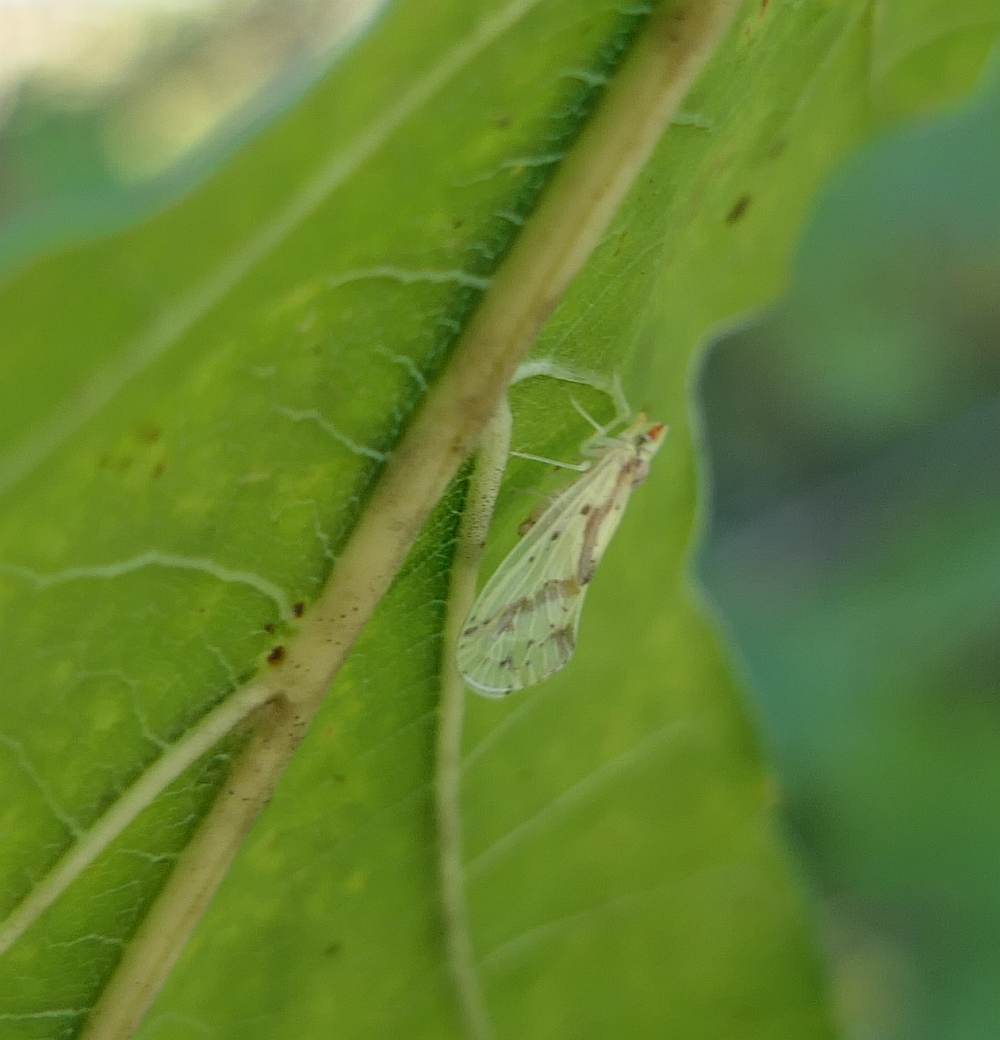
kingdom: Animalia
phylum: Arthropoda
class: Insecta
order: Hemiptera
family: Derbidae
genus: Otiocerus
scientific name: Otiocerus wolfii
